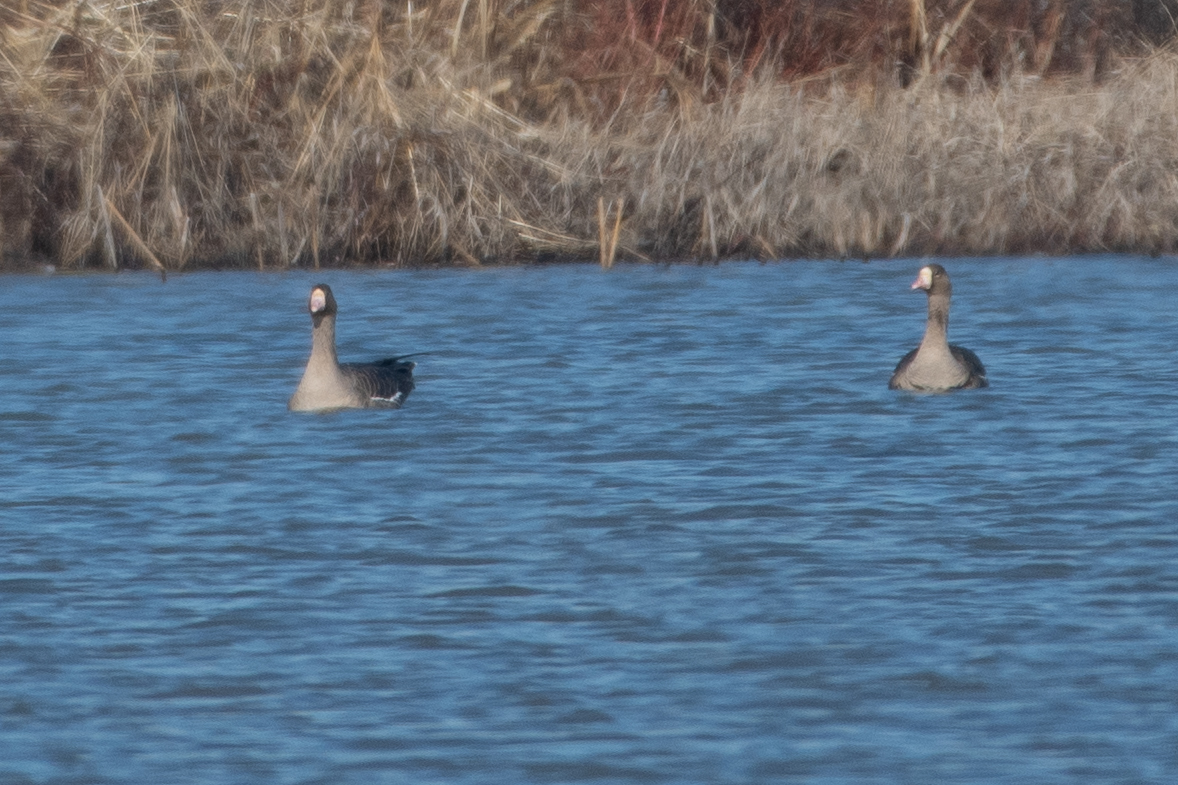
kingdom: Animalia
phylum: Chordata
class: Aves
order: Anseriformes
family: Anatidae
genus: Anser
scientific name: Anser albifrons
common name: Greater white-fronted goose
